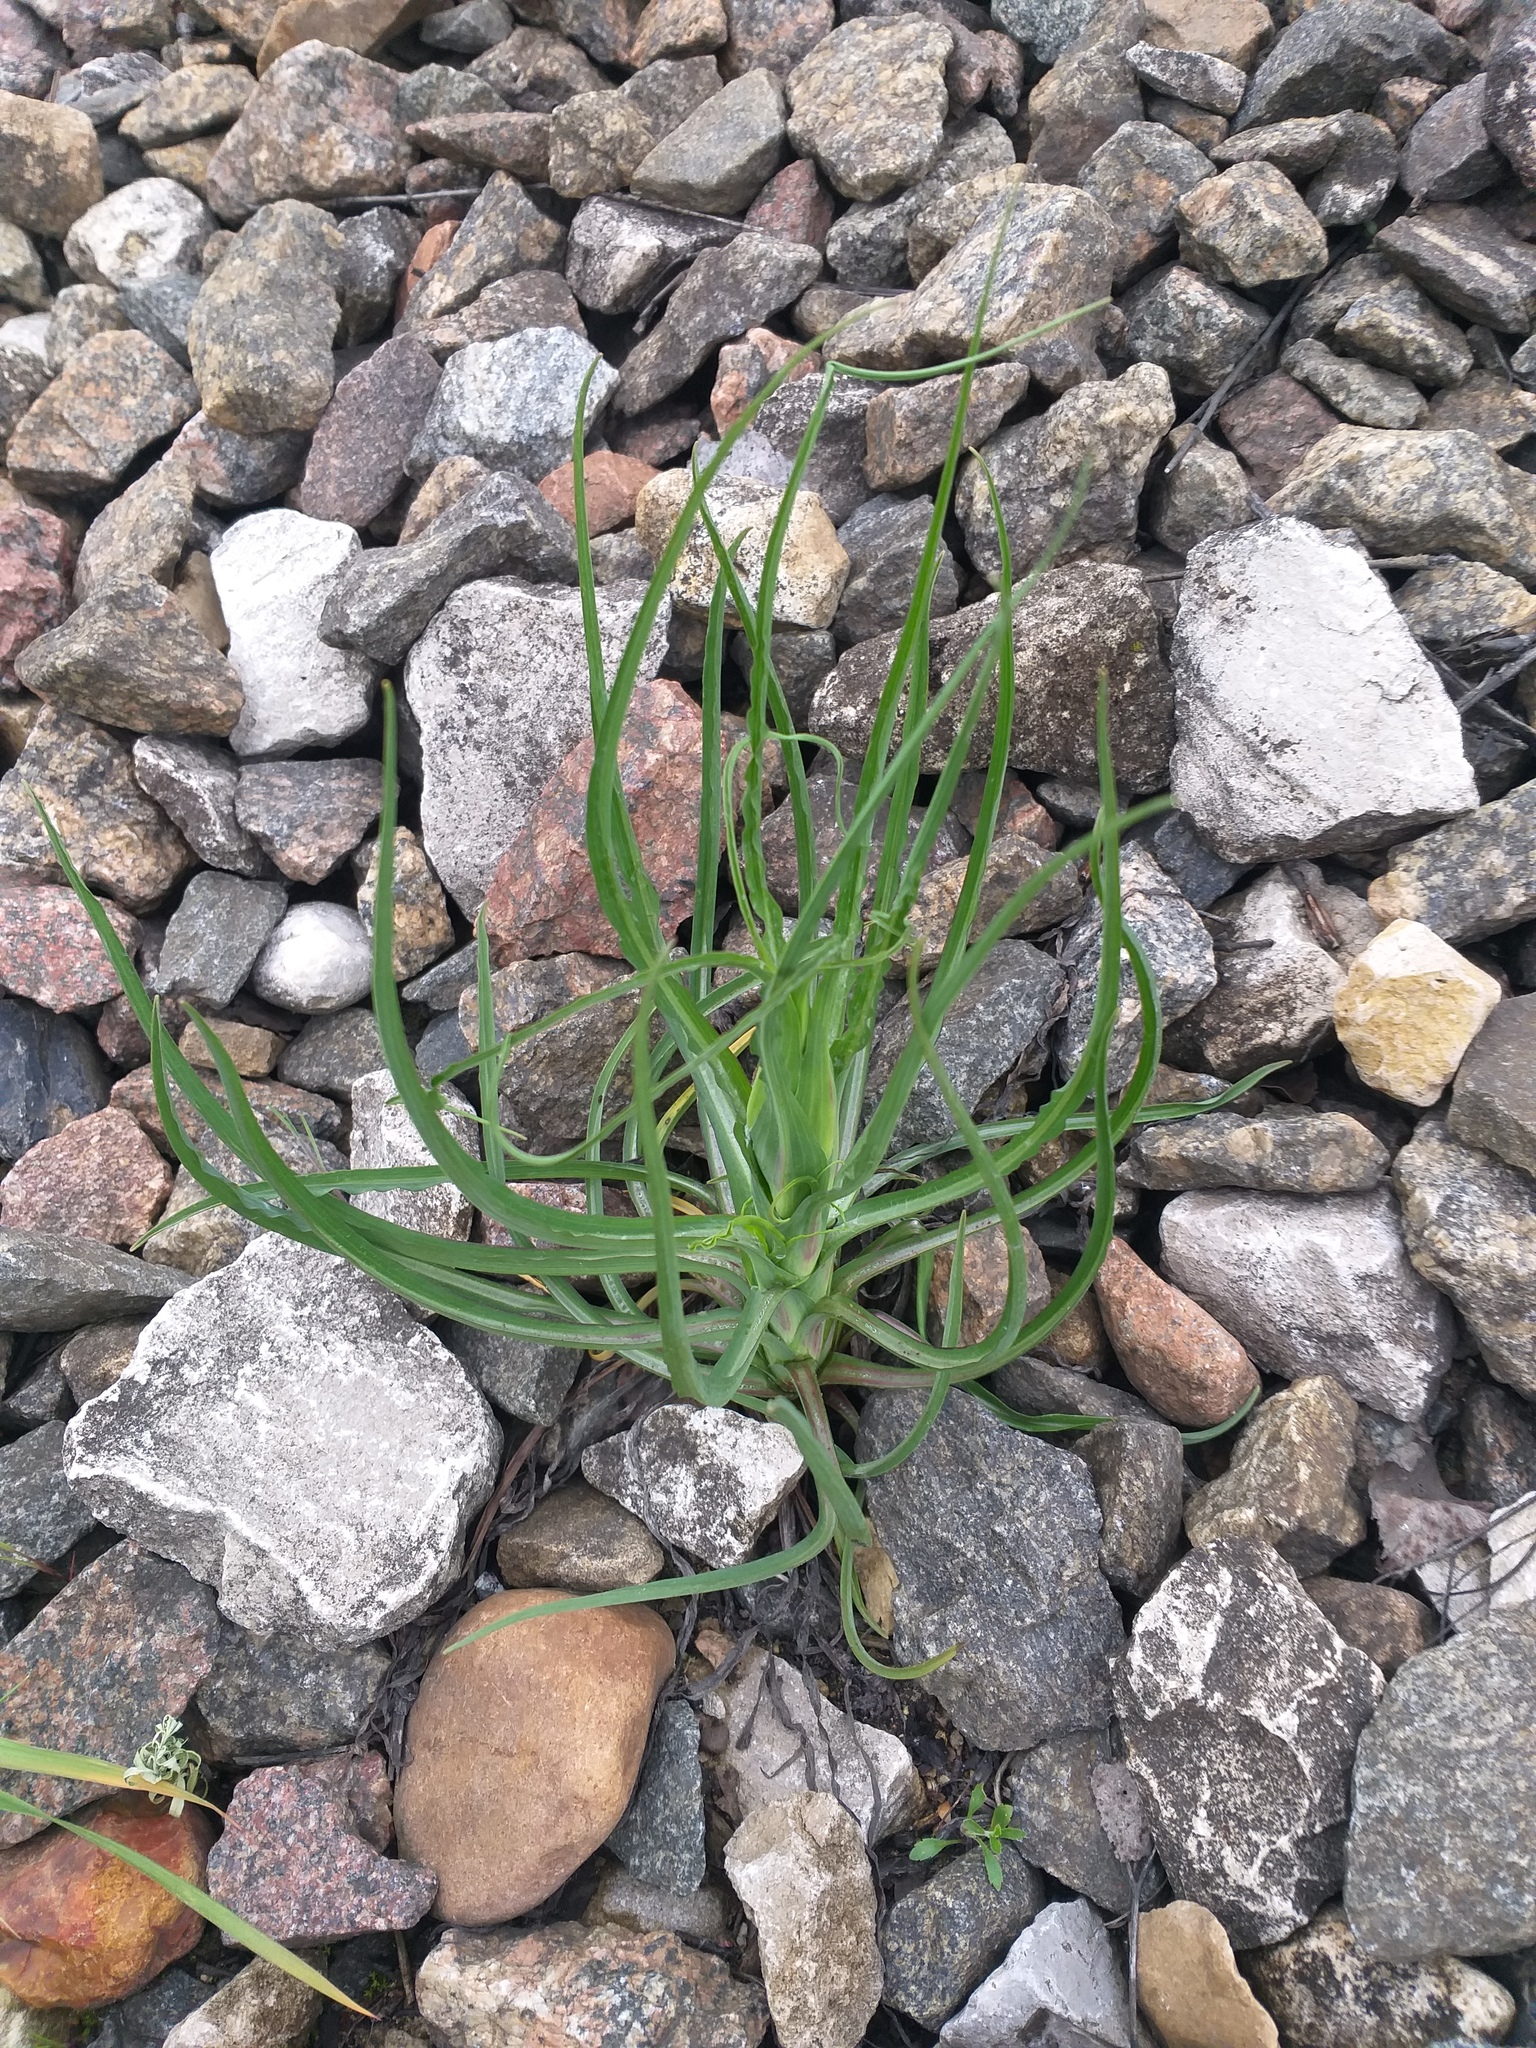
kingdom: Plantae
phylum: Tracheophyta
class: Magnoliopsida
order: Asterales
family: Asteraceae
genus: Tragopogon
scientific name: Tragopogon dubius
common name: Yellow salsify
